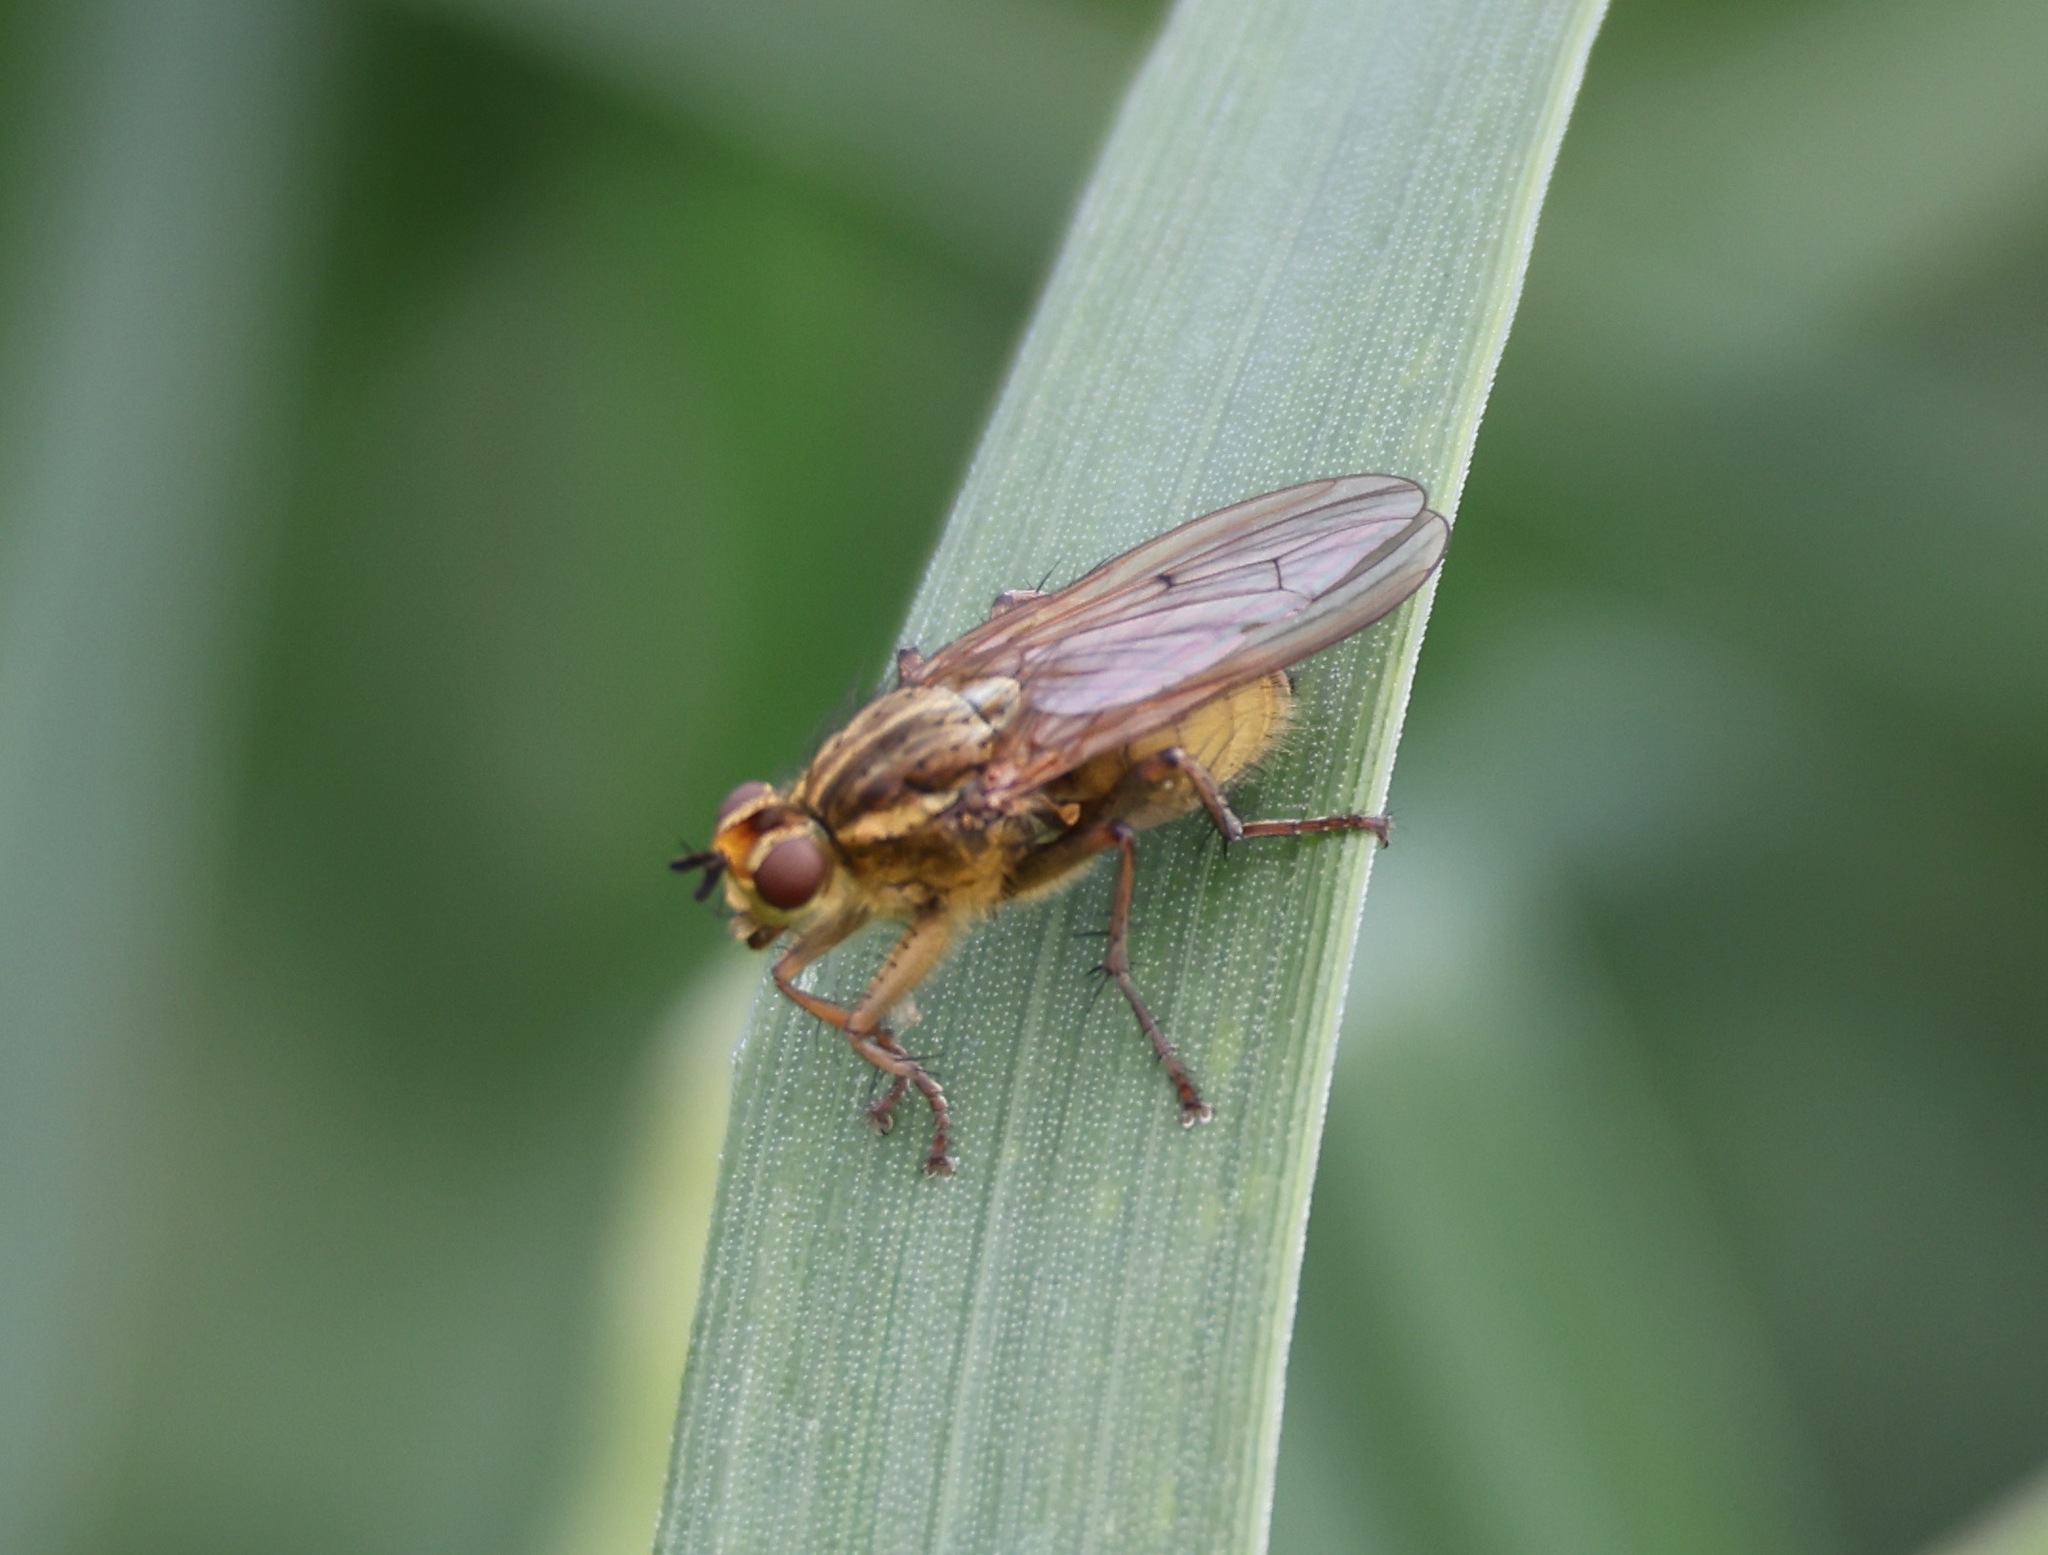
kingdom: Animalia
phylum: Arthropoda
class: Insecta
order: Diptera
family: Scathophagidae
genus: Scathophaga
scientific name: Scathophaga stercoraria
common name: Yellow dung fly
